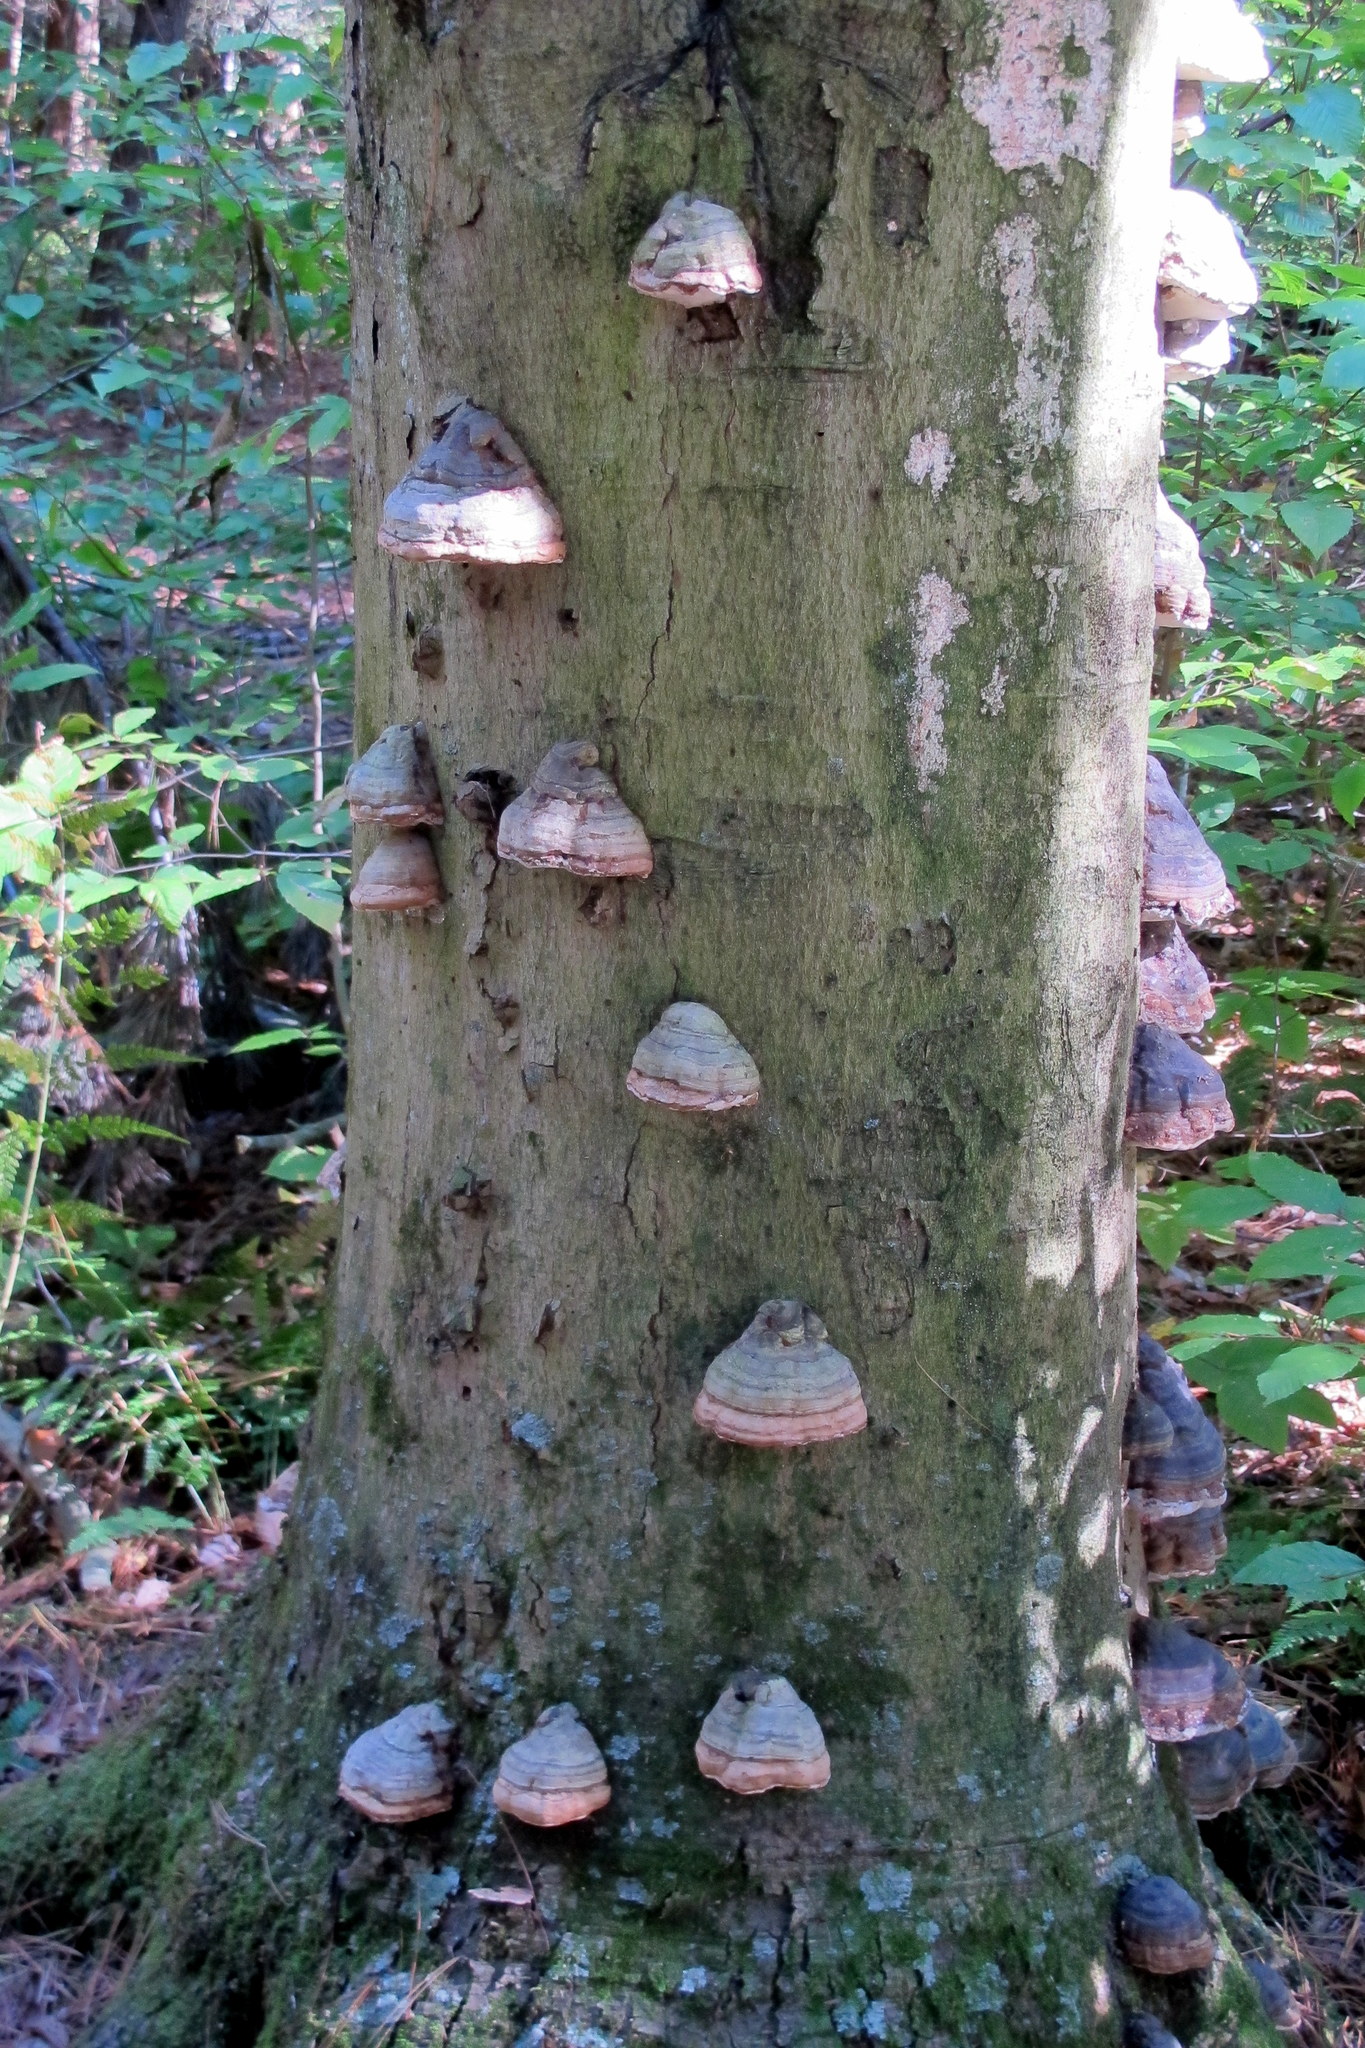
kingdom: Fungi
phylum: Basidiomycota
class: Agaricomycetes
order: Polyporales
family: Polyporaceae
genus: Fomes
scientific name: Fomes fomentarius
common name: Hoof fungus
